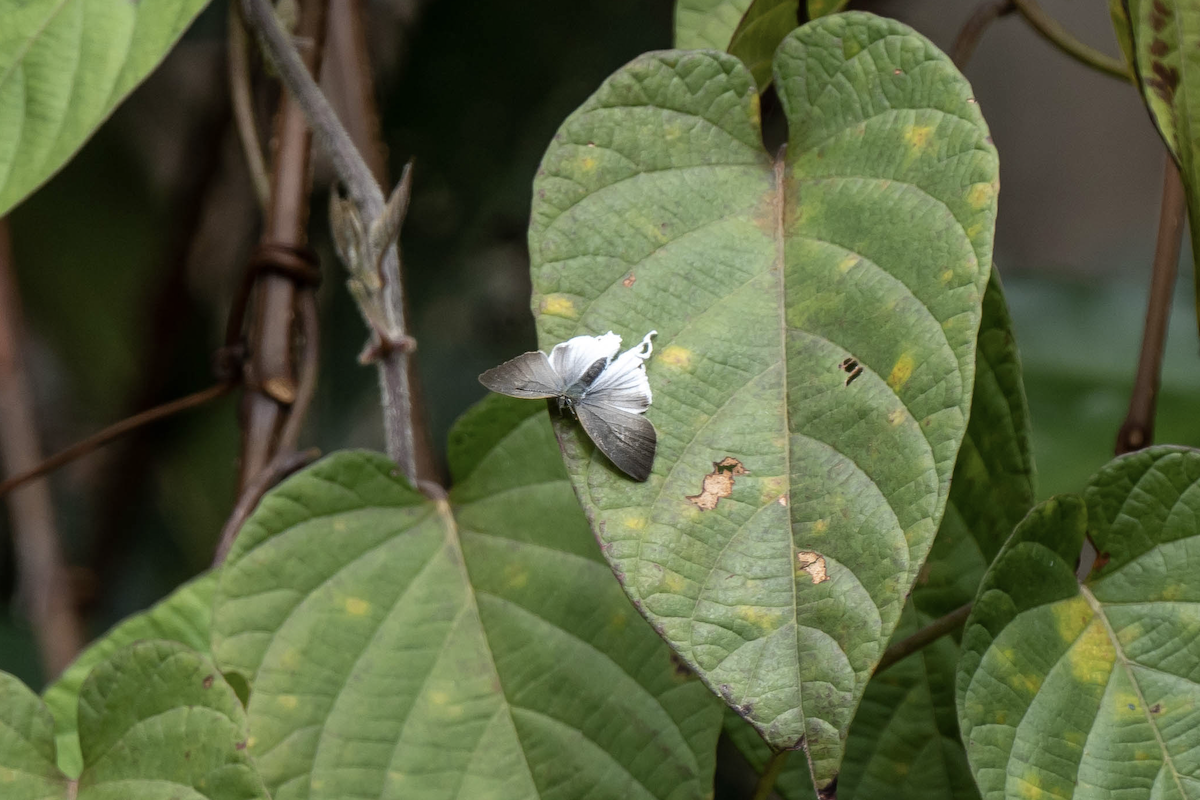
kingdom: Animalia
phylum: Arthropoda
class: Insecta
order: Lepidoptera
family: Lycaenidae
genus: Zeltus
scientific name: Zeltus amasa
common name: Fluffy tit
